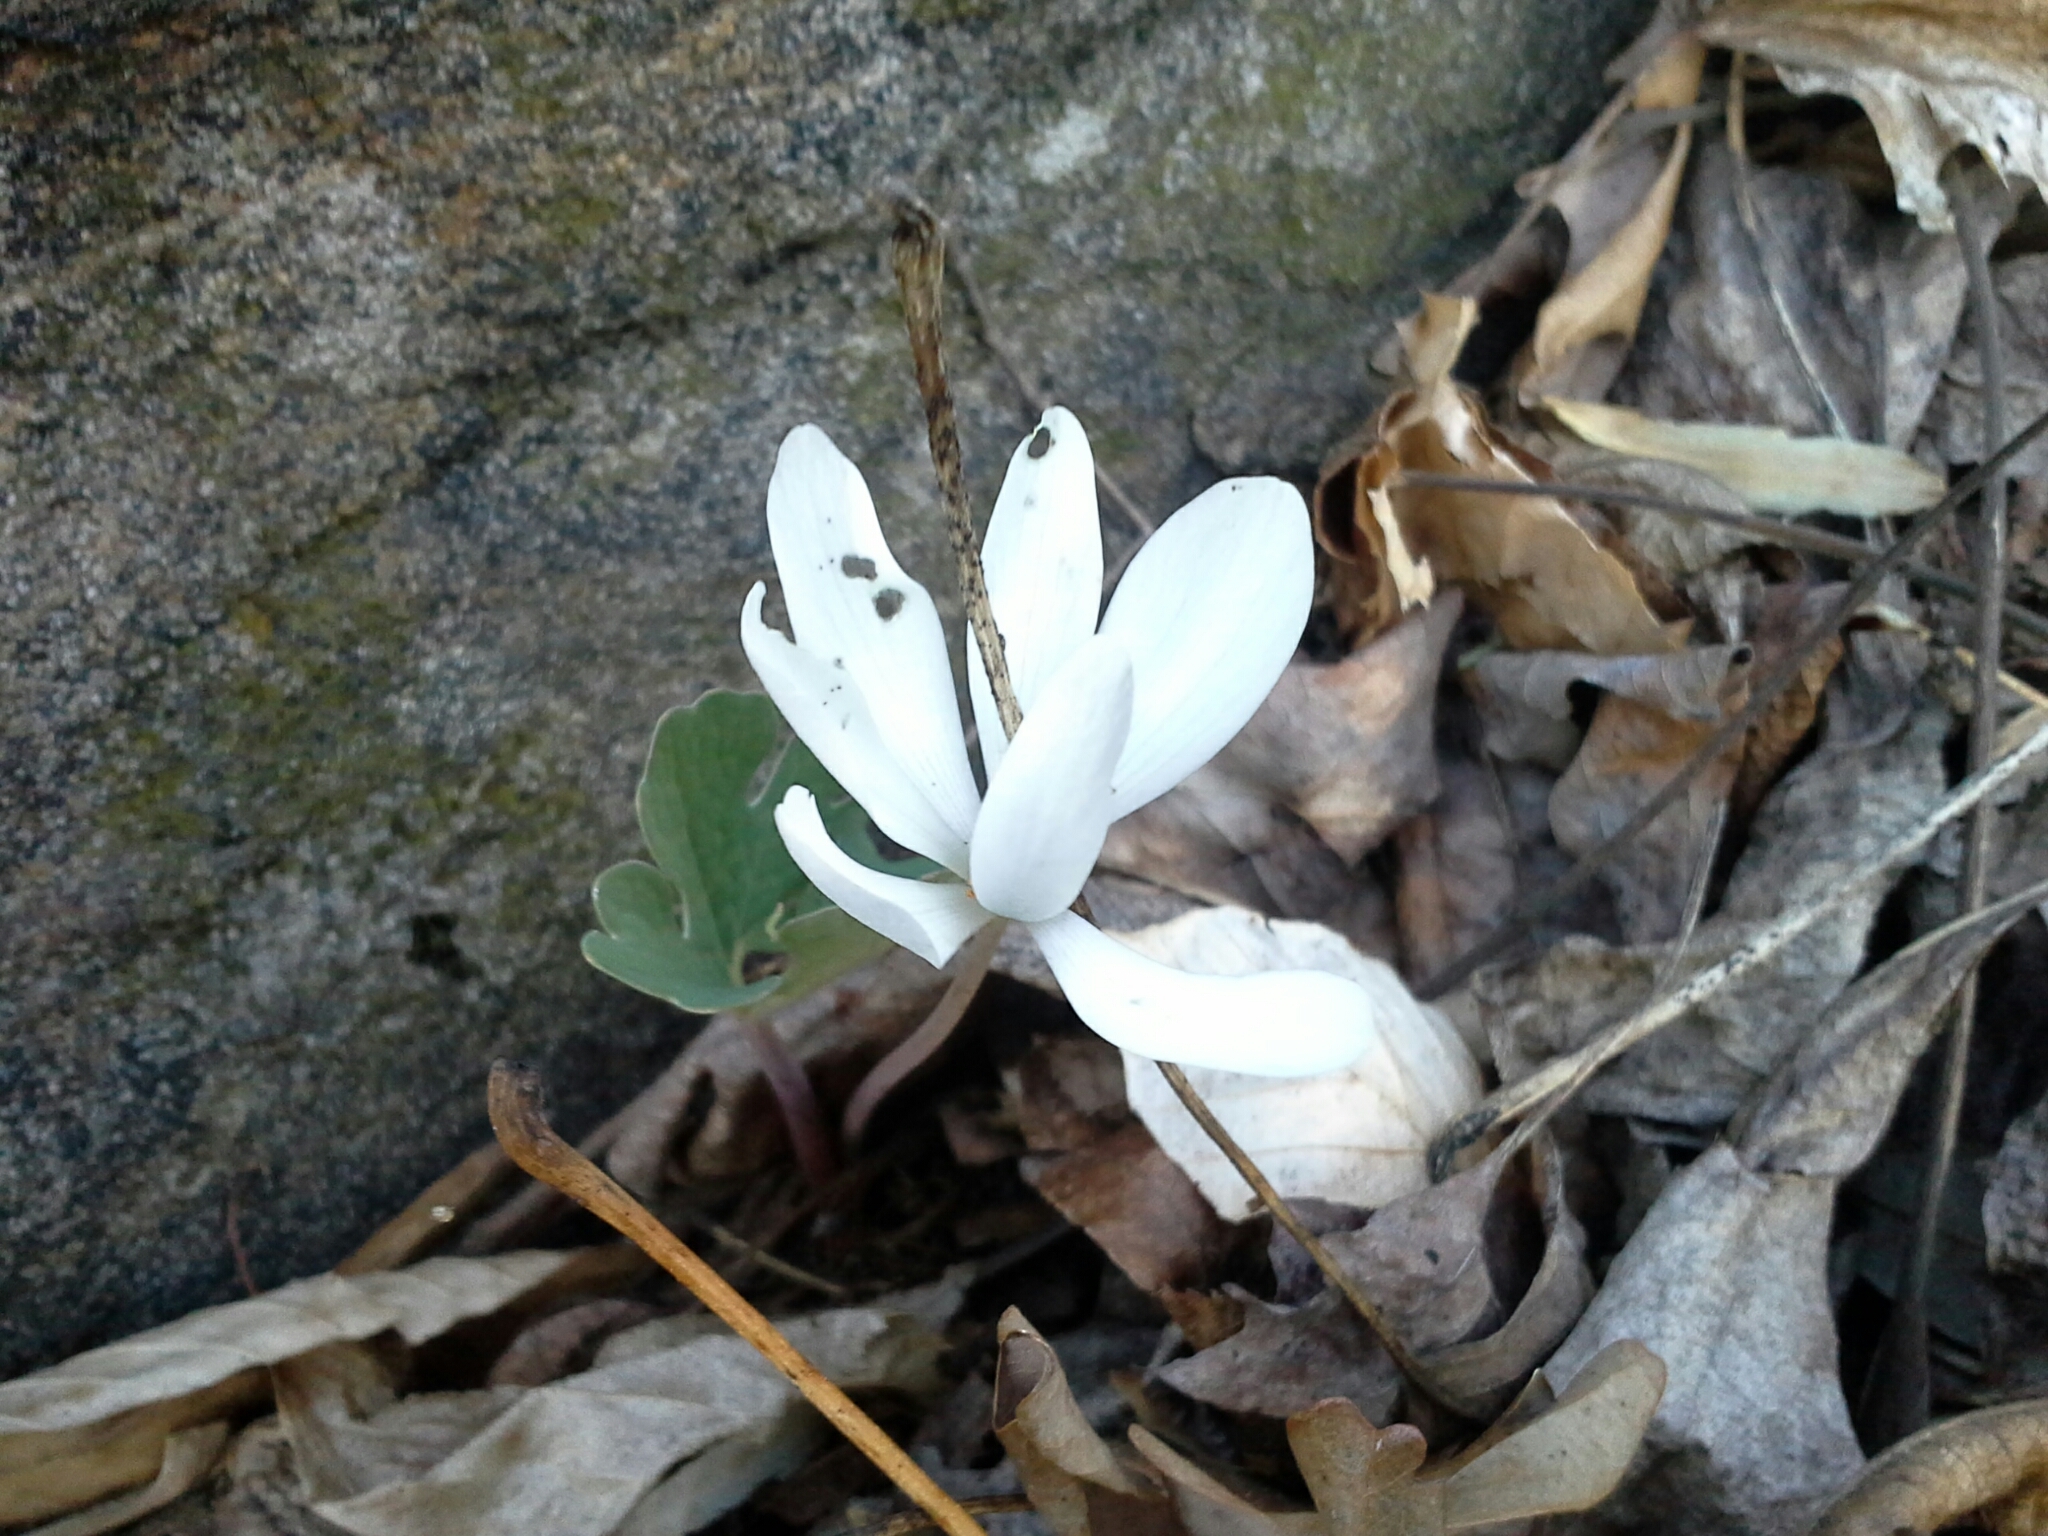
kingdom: Plantae
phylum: Tracheophyta
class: Magnoliopsida
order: Ranunculales
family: Papaveraceae
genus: Sanguinaria
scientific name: Sanguinaria canadensis
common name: Bloodroot
